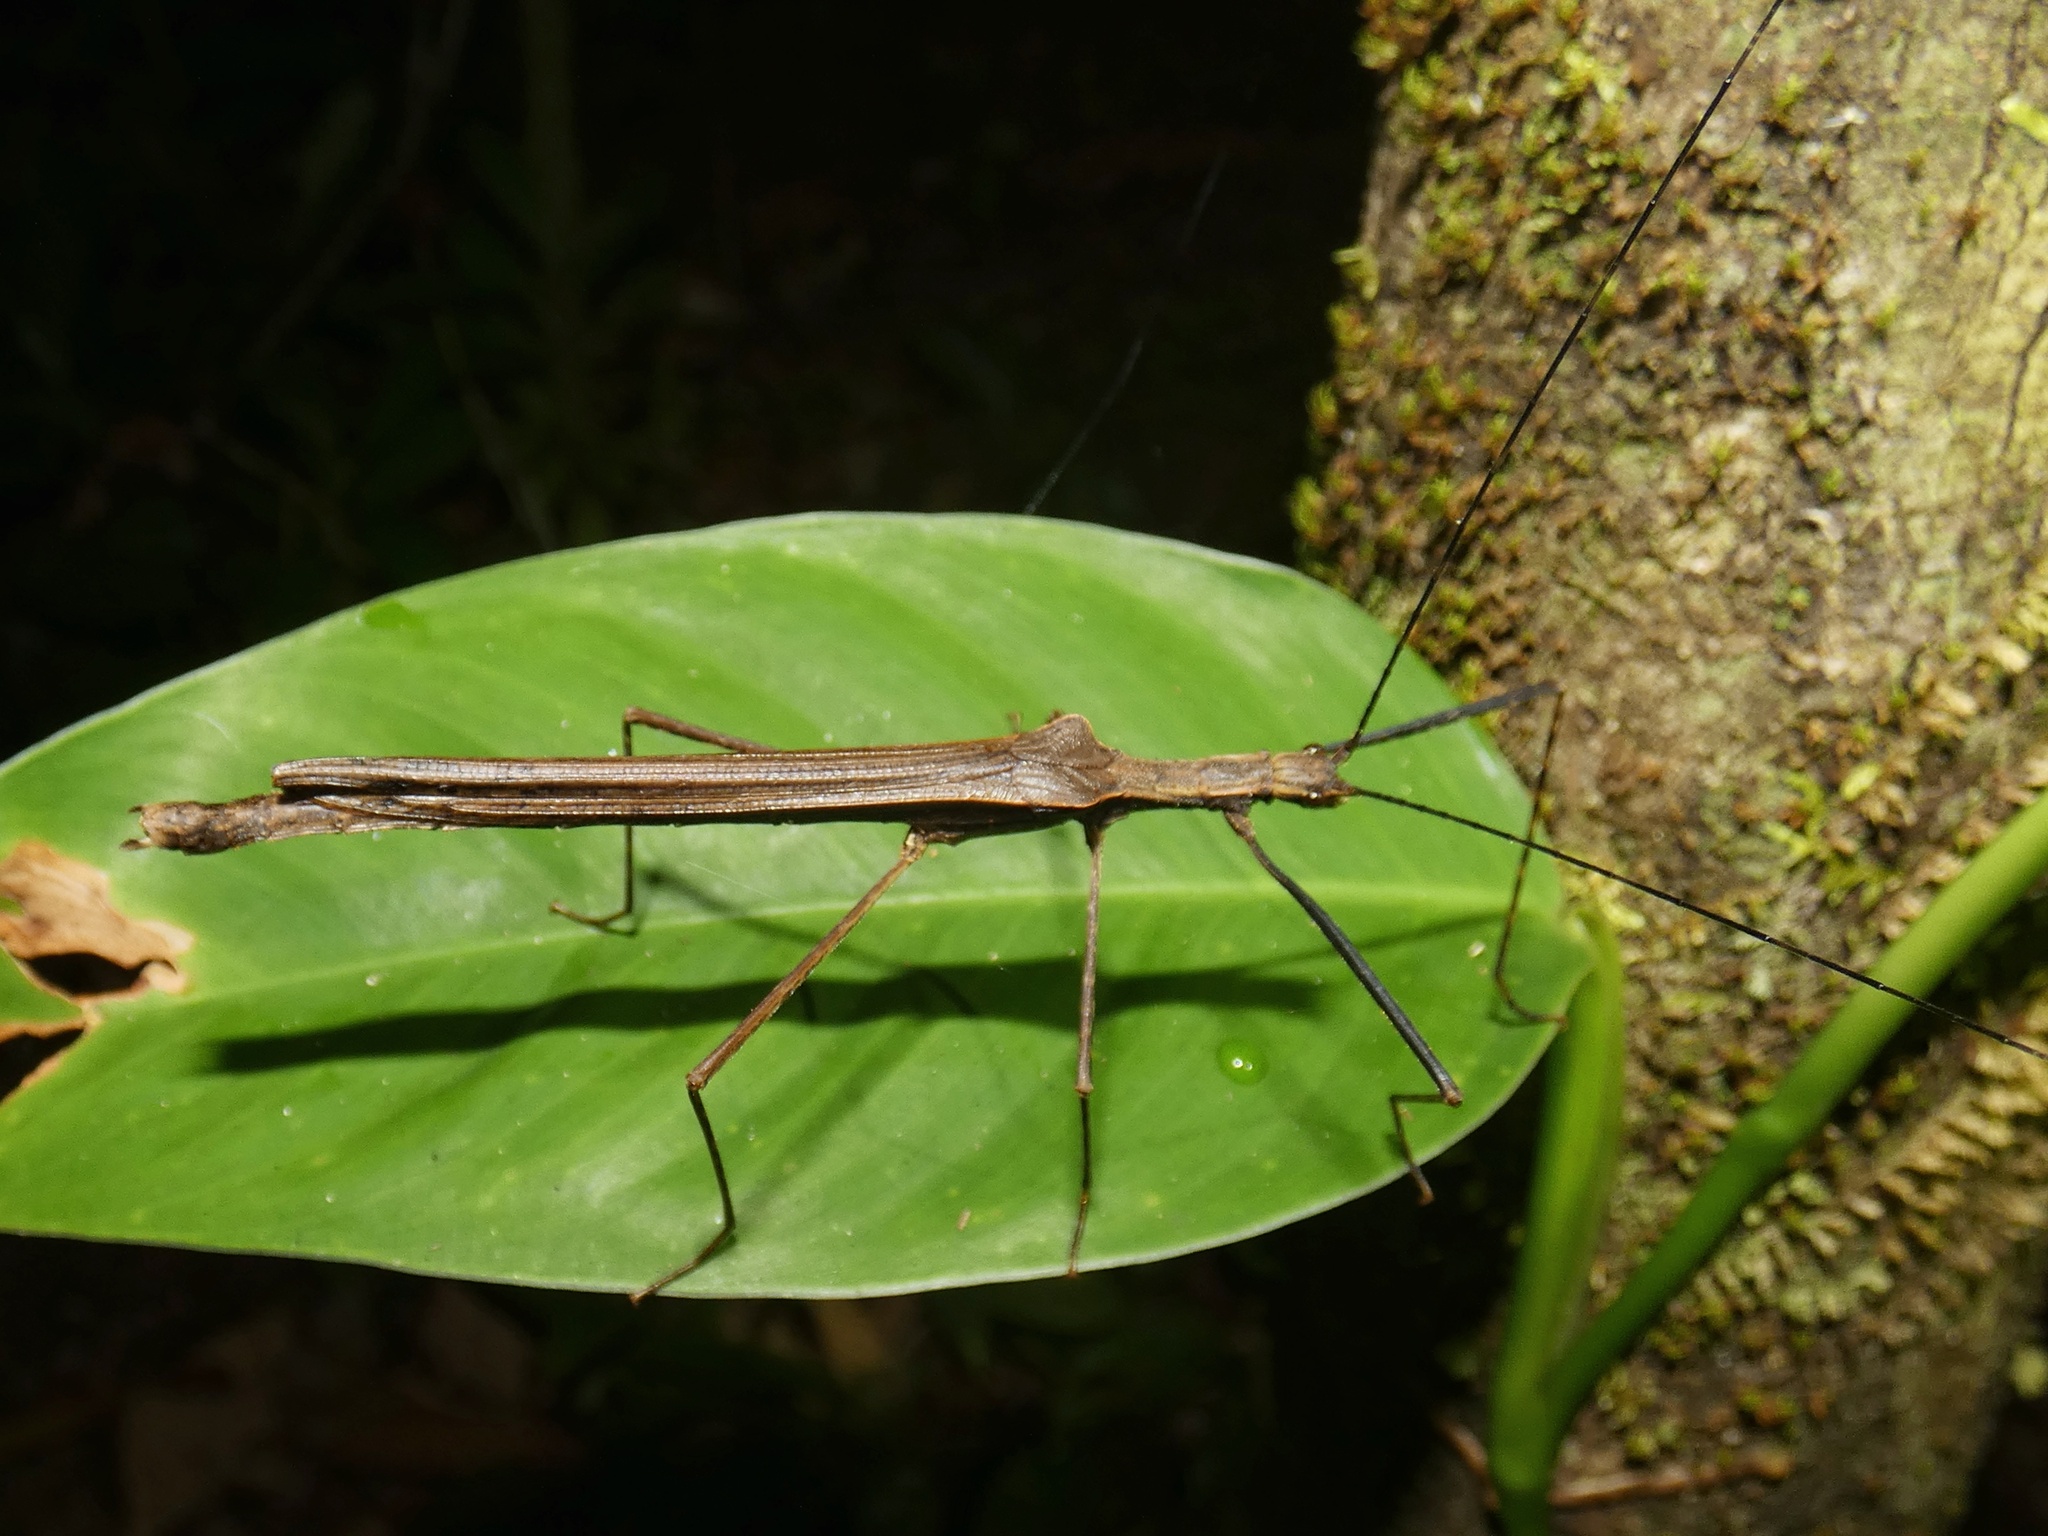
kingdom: Animalia
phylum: Arthropoda
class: Insecta
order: Phasmida
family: Pseudophasmatidae
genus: Pseudophasma
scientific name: Pseudophasma unicolor
